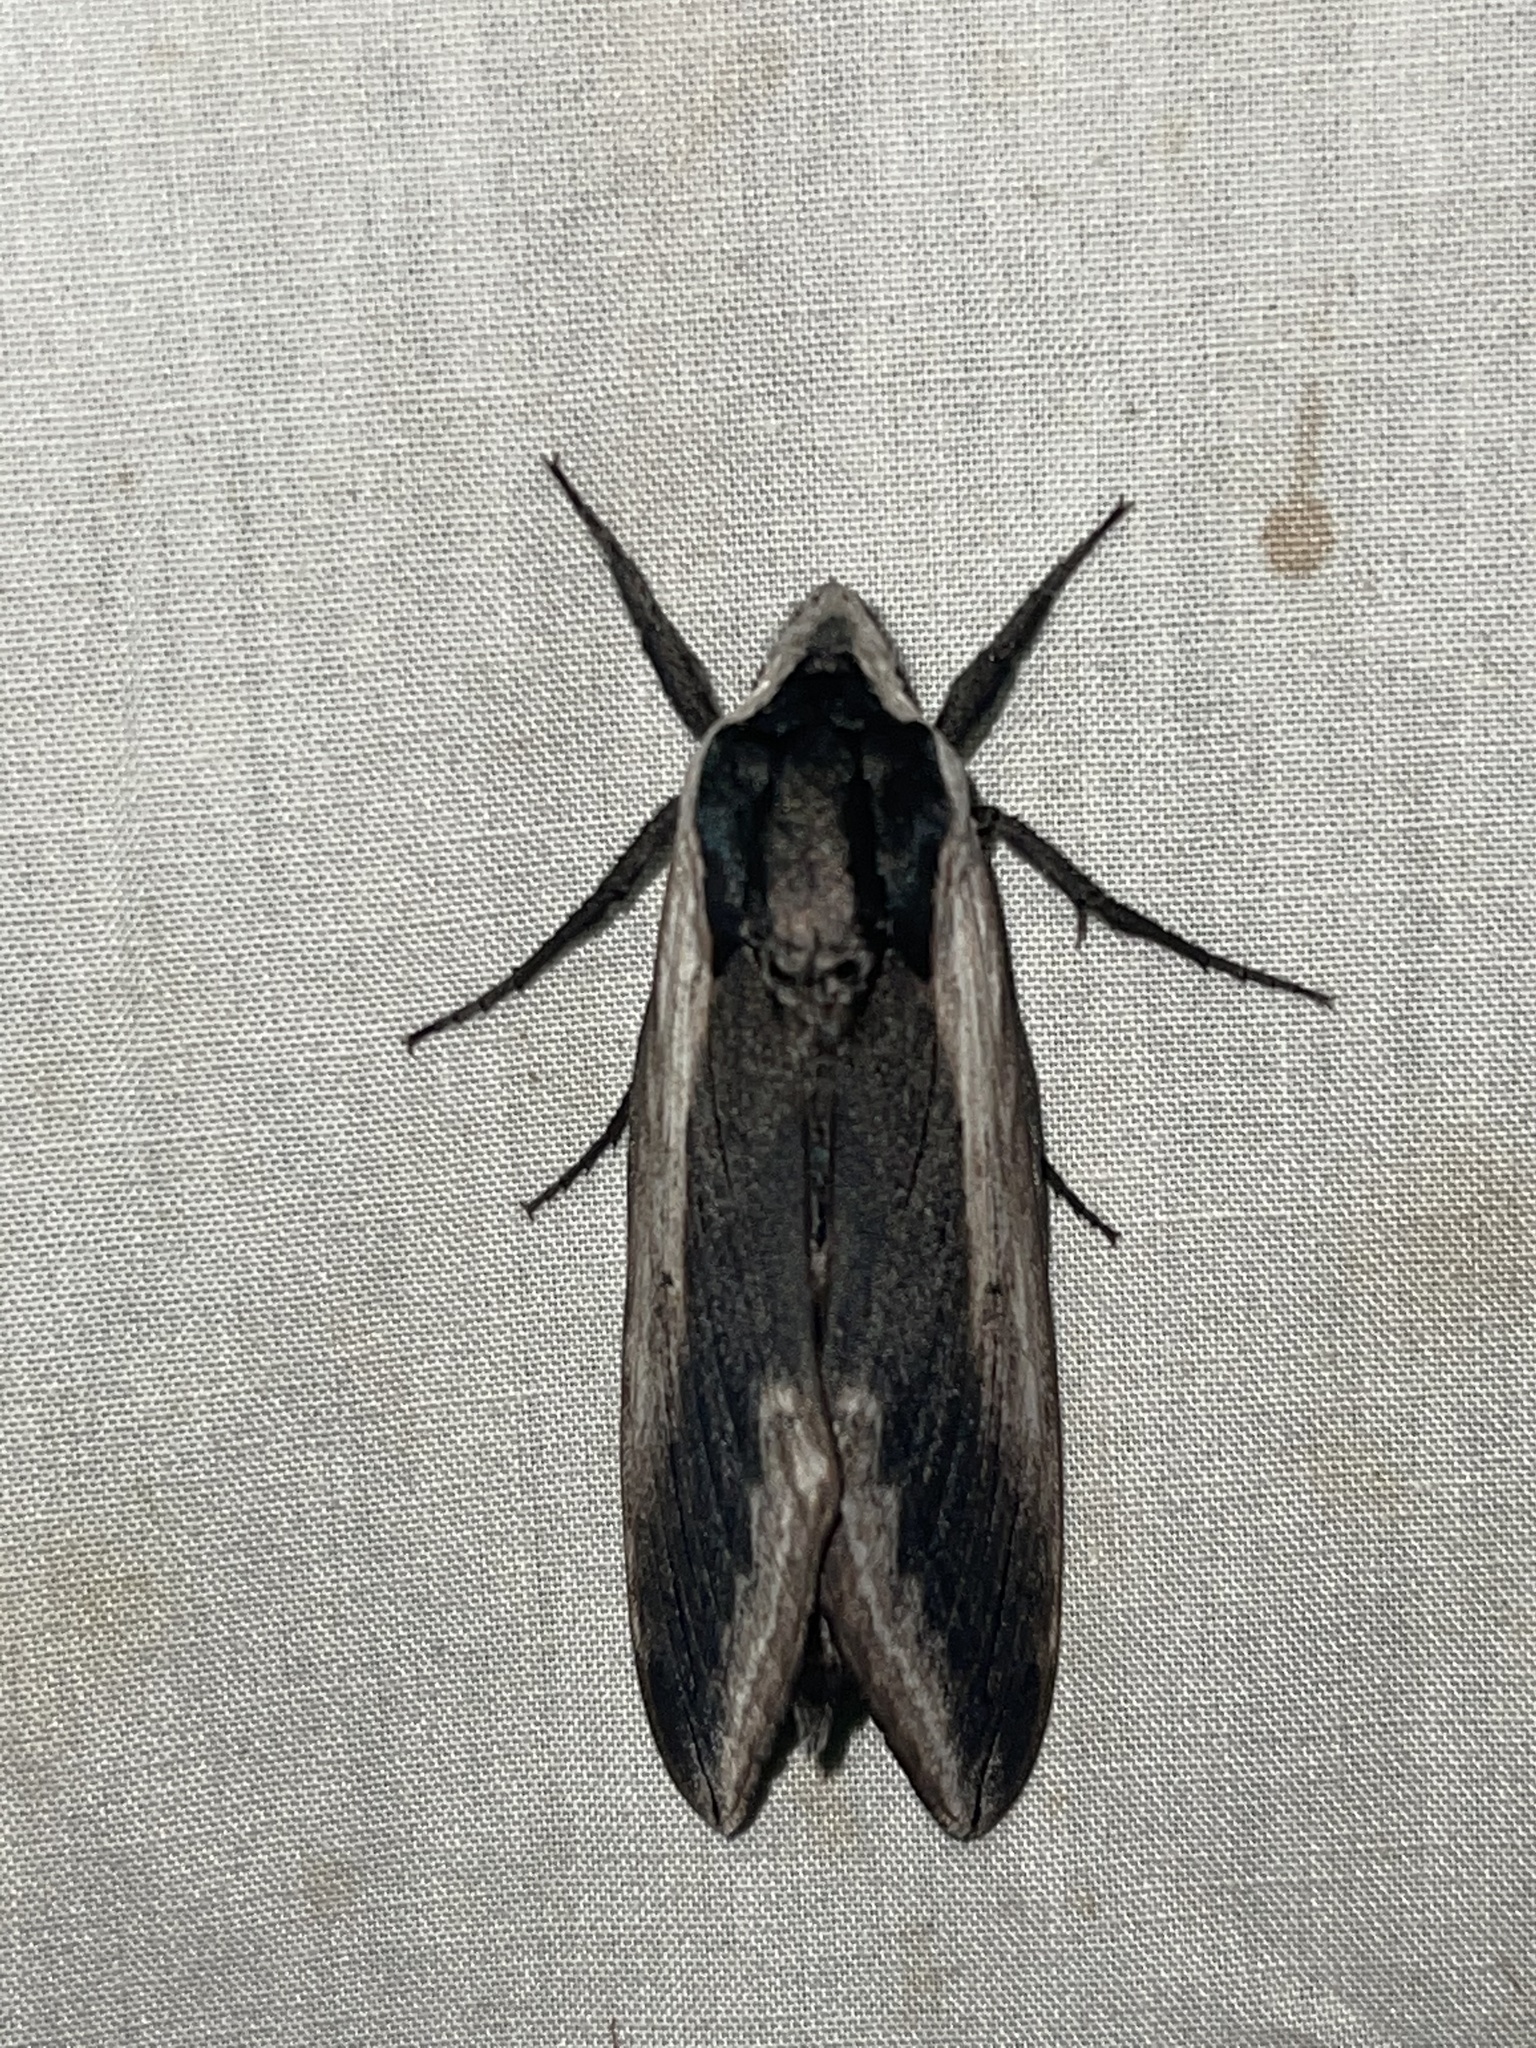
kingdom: Animalia
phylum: Arthropoda
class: Insecta
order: Lepidoptera
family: Sphingidae
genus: Sphinx
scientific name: Sphinx drupiferarum
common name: Wild cherry sphinx
